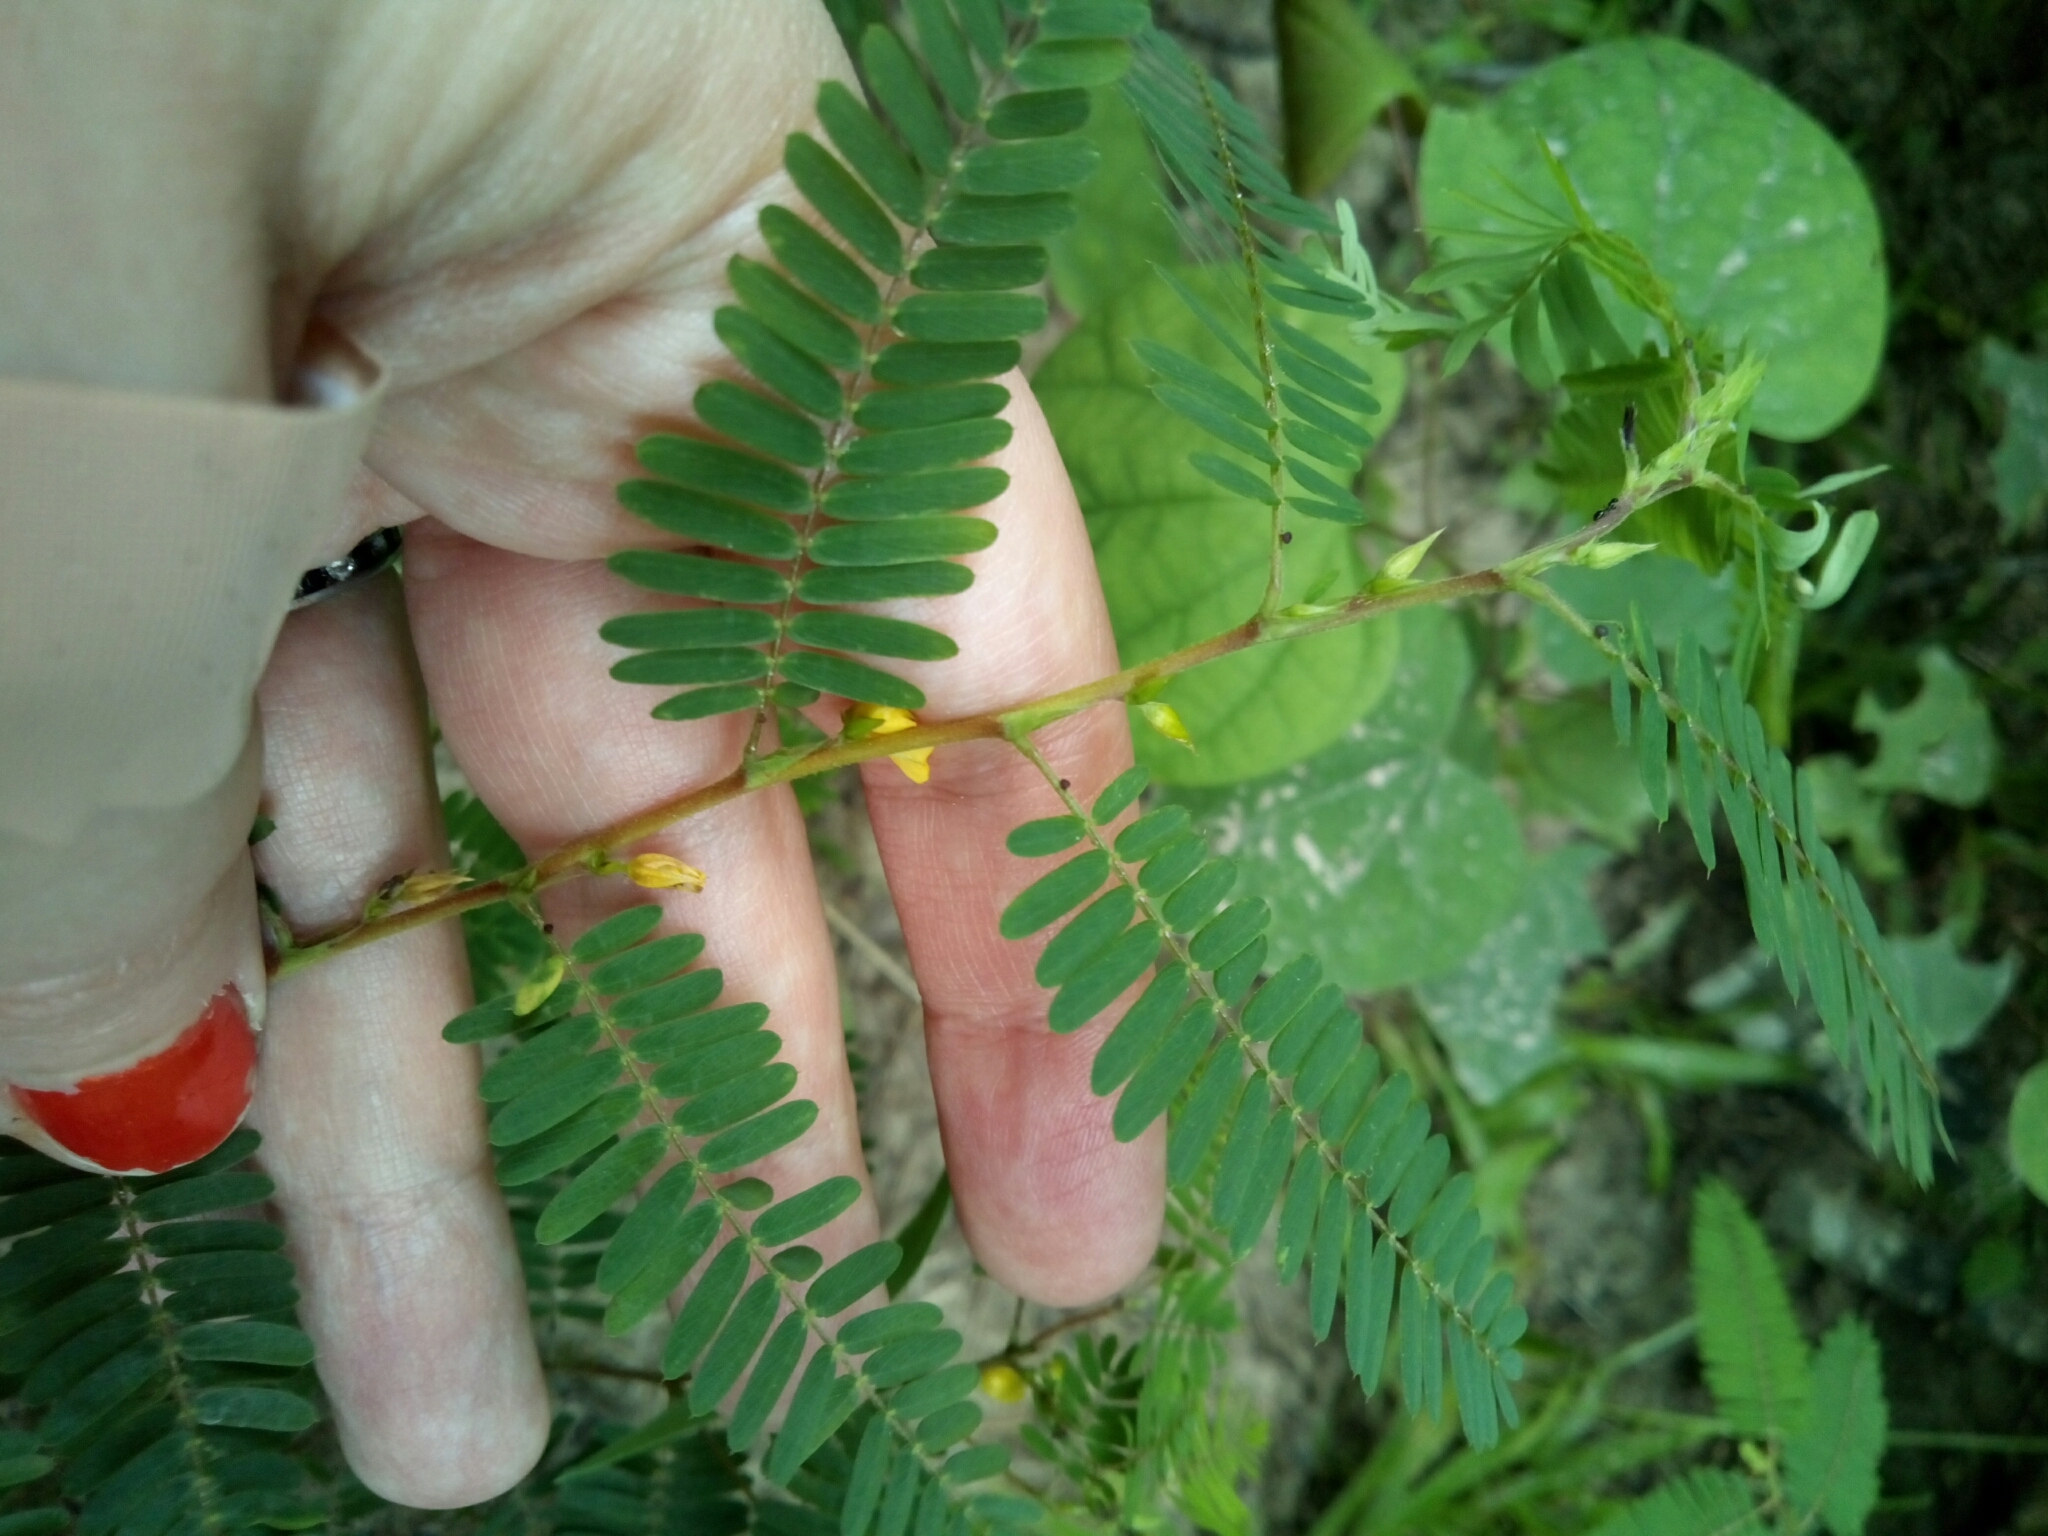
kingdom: Plantae
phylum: Tracheophyta
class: Magnoliopsida
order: Fabales
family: Fabaceae
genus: Chamaecrista
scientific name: Chamaecrista fasciculata
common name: Golden cassia
